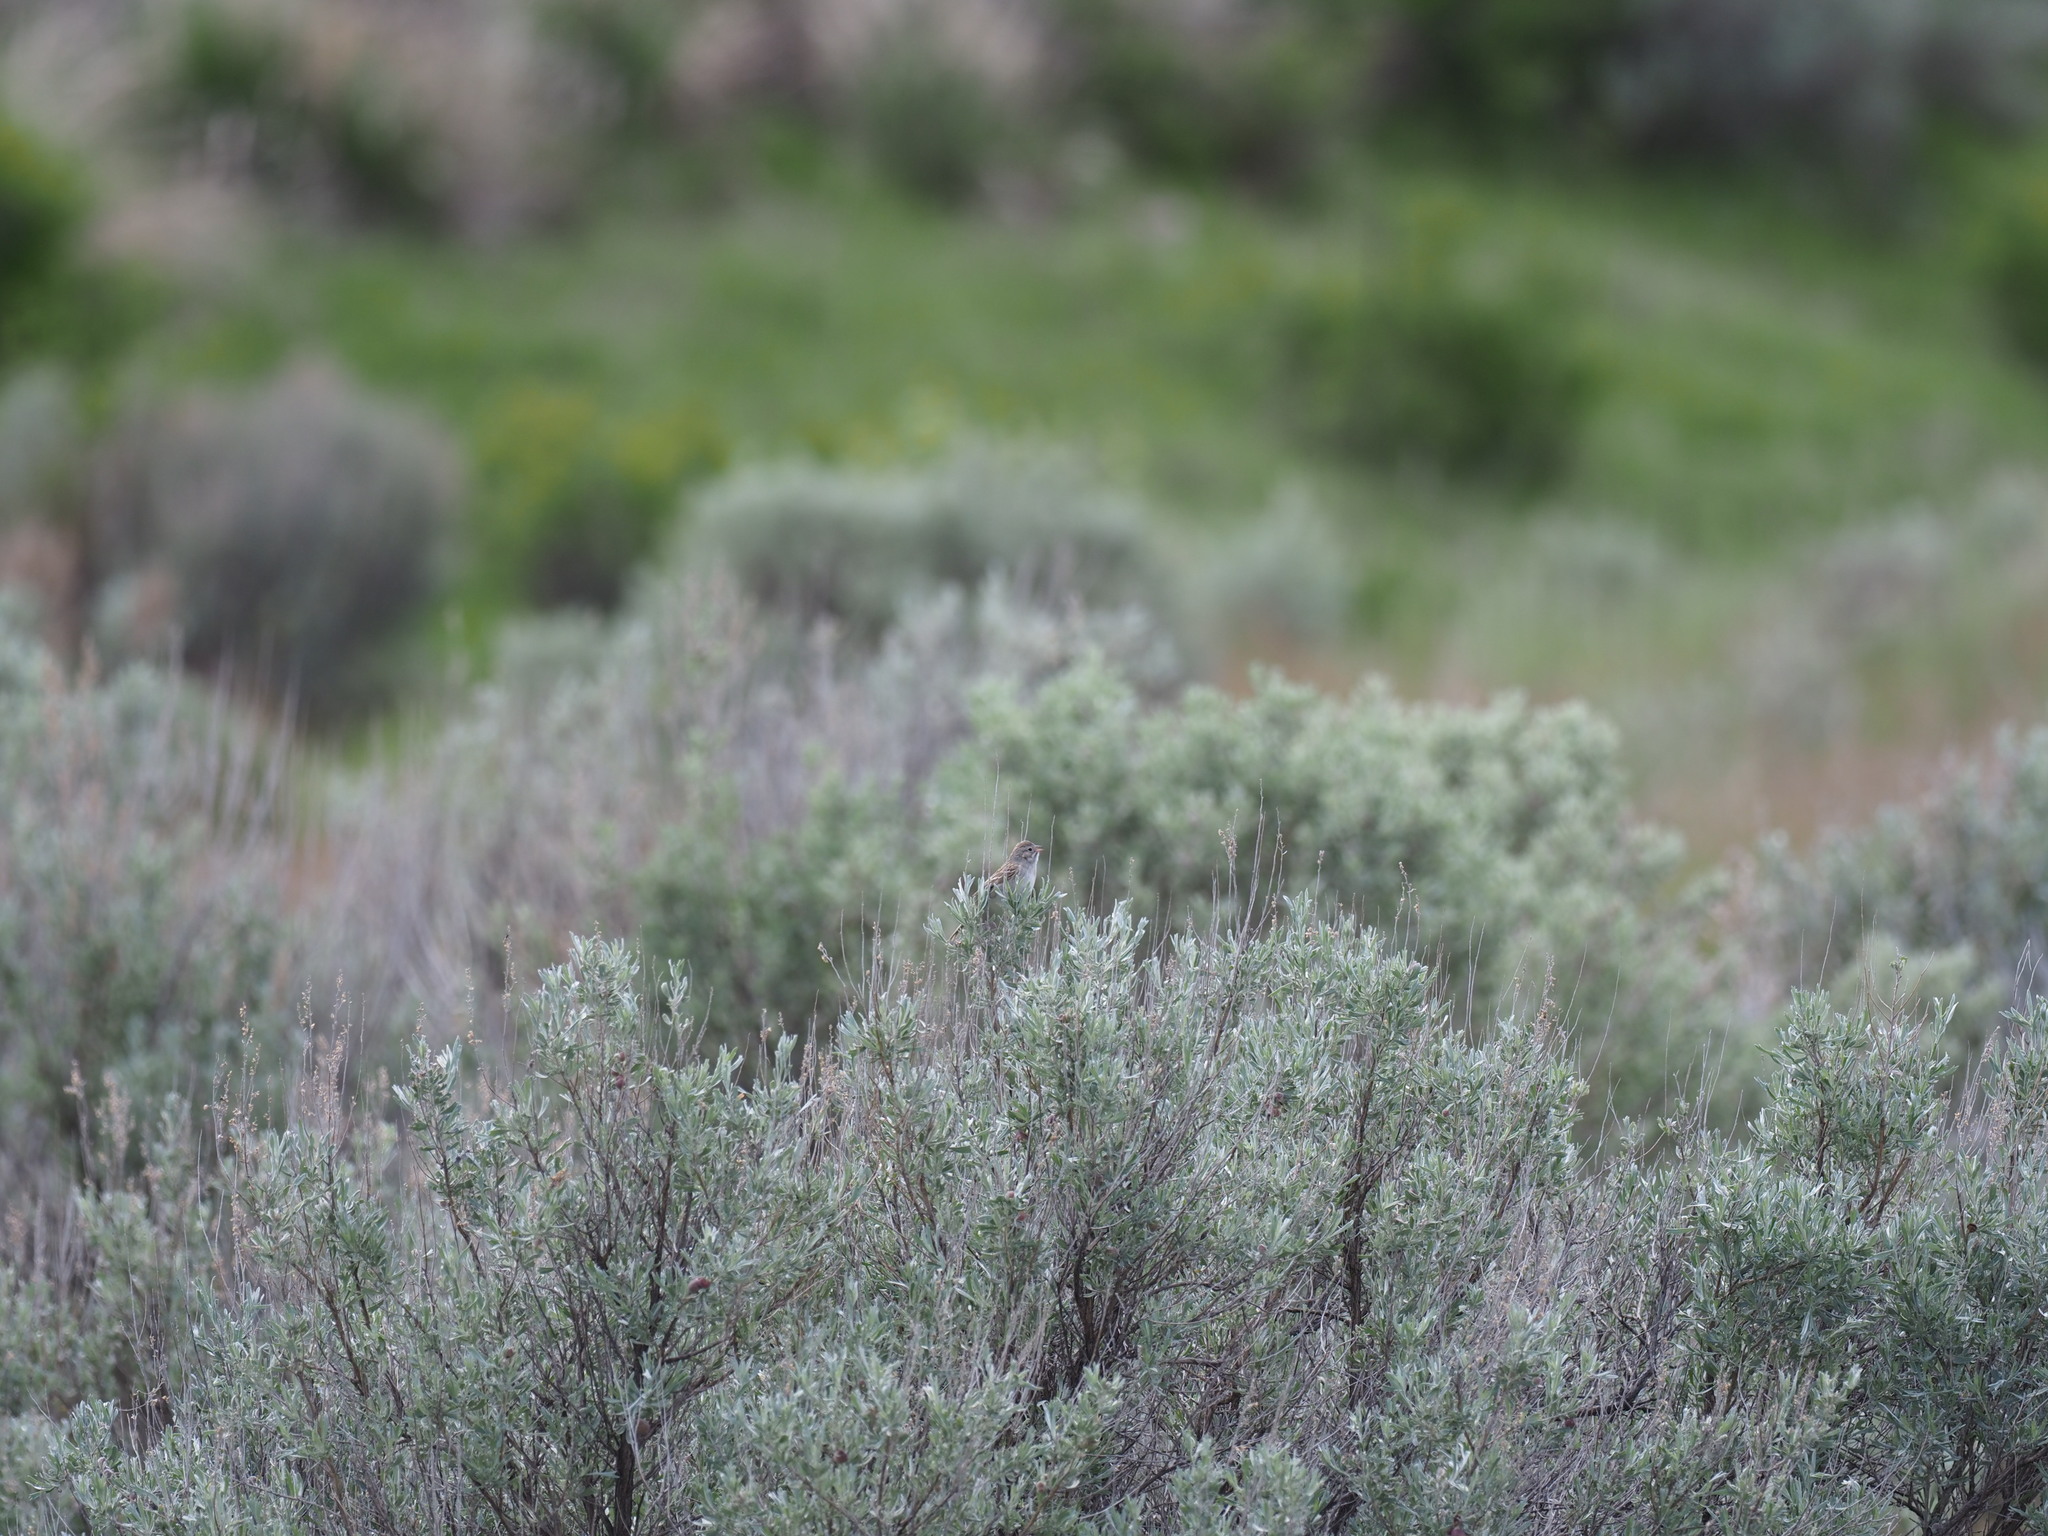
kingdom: Animalia
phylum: Chordata
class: Aves
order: Passeriformes
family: Passerellidae
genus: Spizella
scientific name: Spizella breweri
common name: Brewer's sparrow
